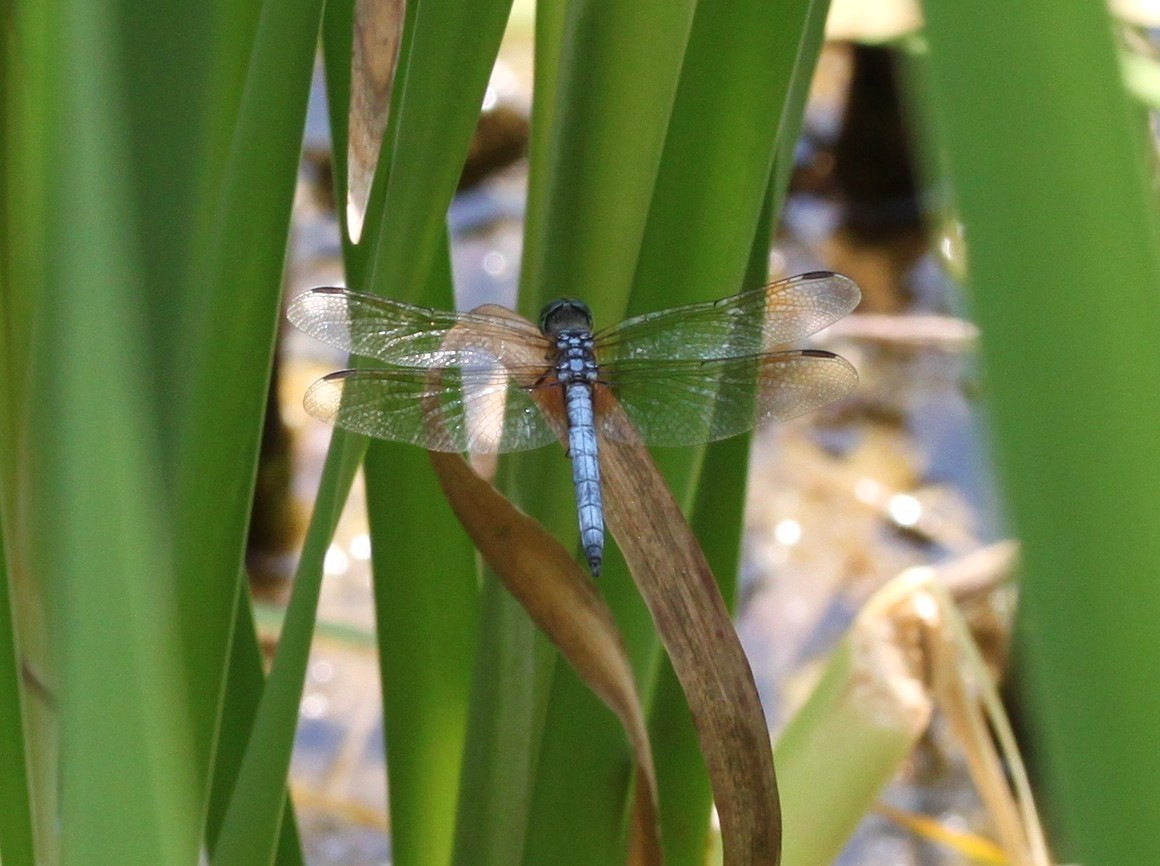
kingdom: Animalia
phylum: Arthropoda
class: Insecta
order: Odonata
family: Libellulidae
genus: Pachydiplax
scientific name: Pachydiplax longipennis
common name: Blue dasher
